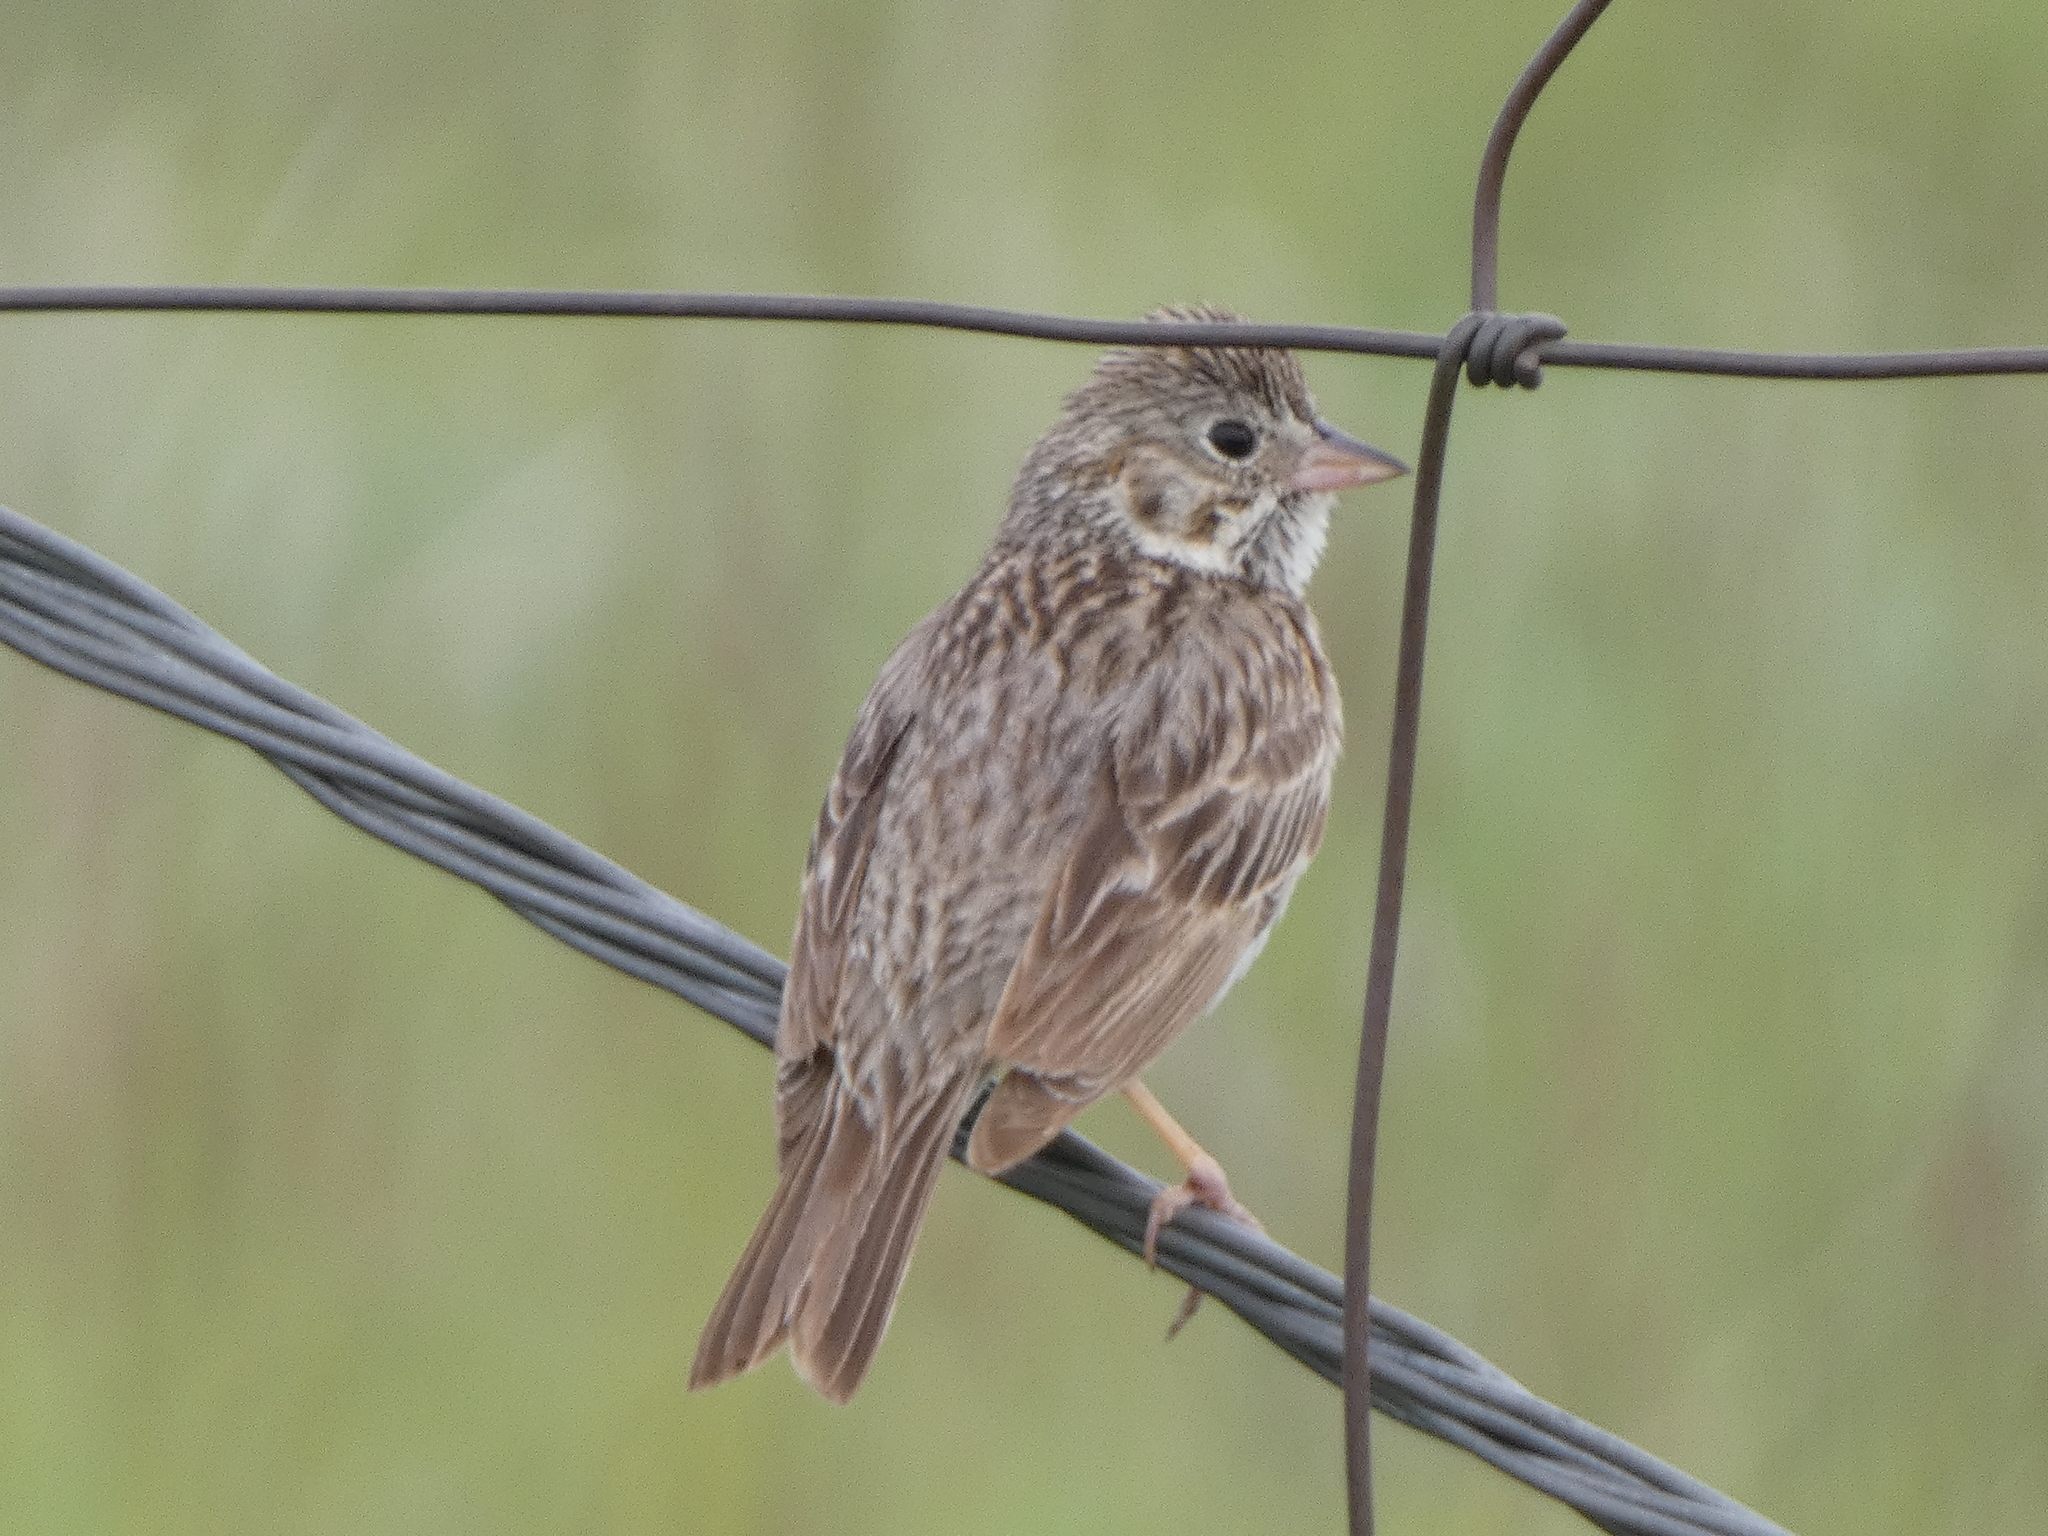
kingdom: Animalia
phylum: Chordata
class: Aves
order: Passeriformes
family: Passerellidae
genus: Pooecetes
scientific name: Pooecetes gramineus
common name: Vesper sparrow
